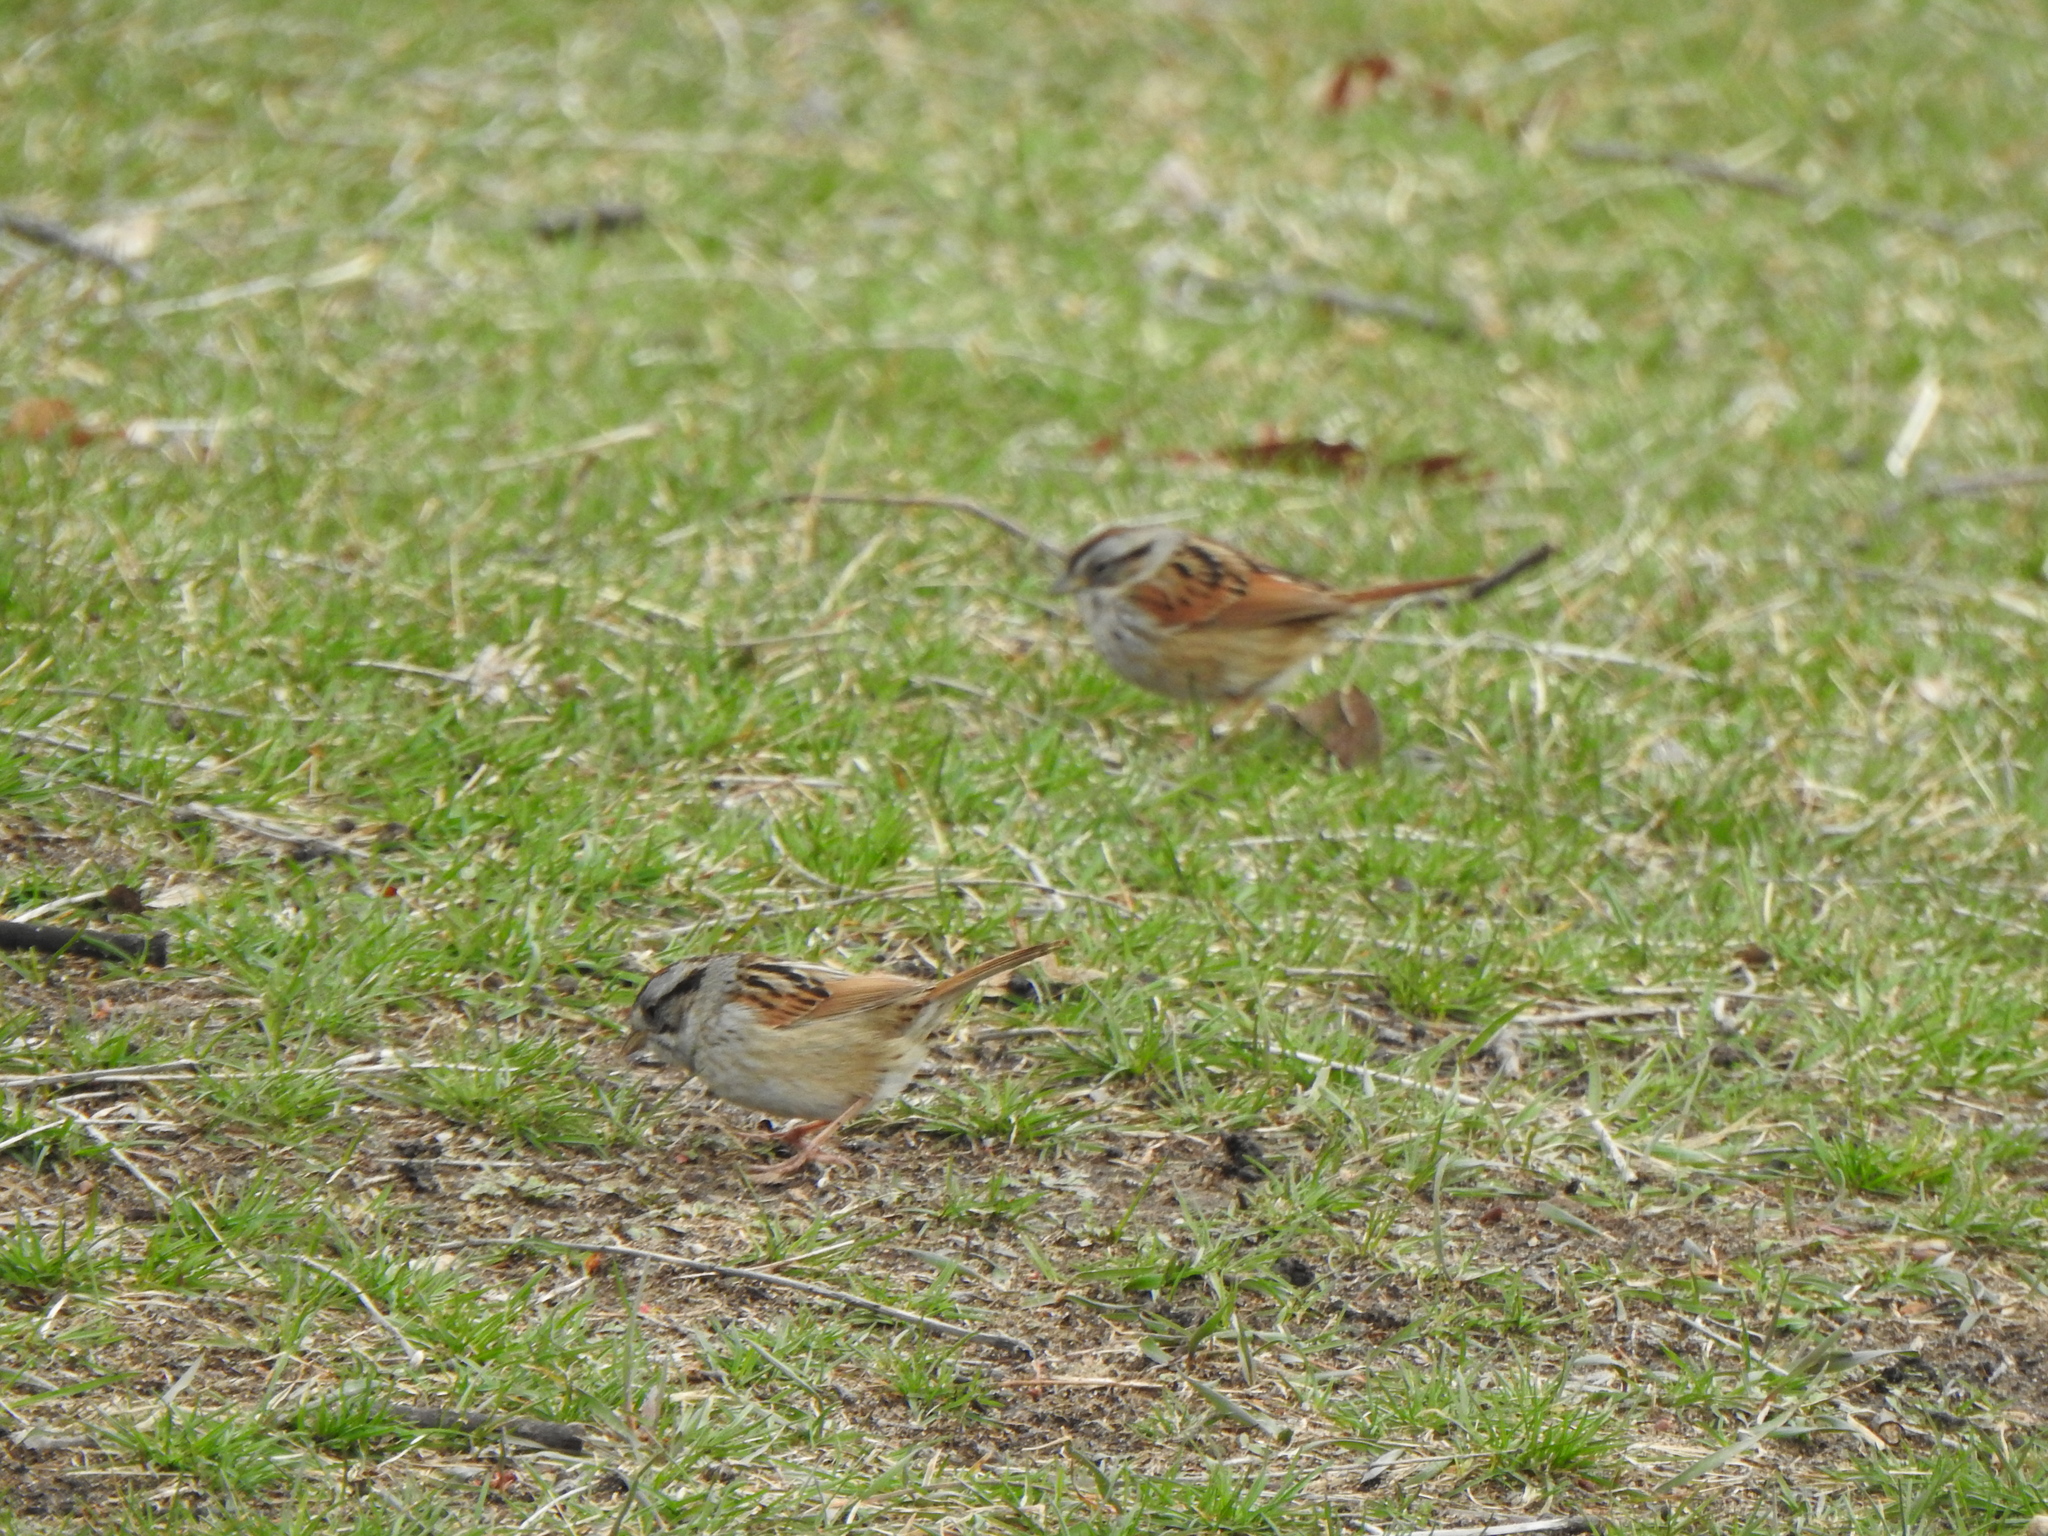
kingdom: Animalia
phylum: Chordata
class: Aves
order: Passeriformes
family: Passerellidae
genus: Melospiza
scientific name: Melospiza georgiana
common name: Swamp sparrow
